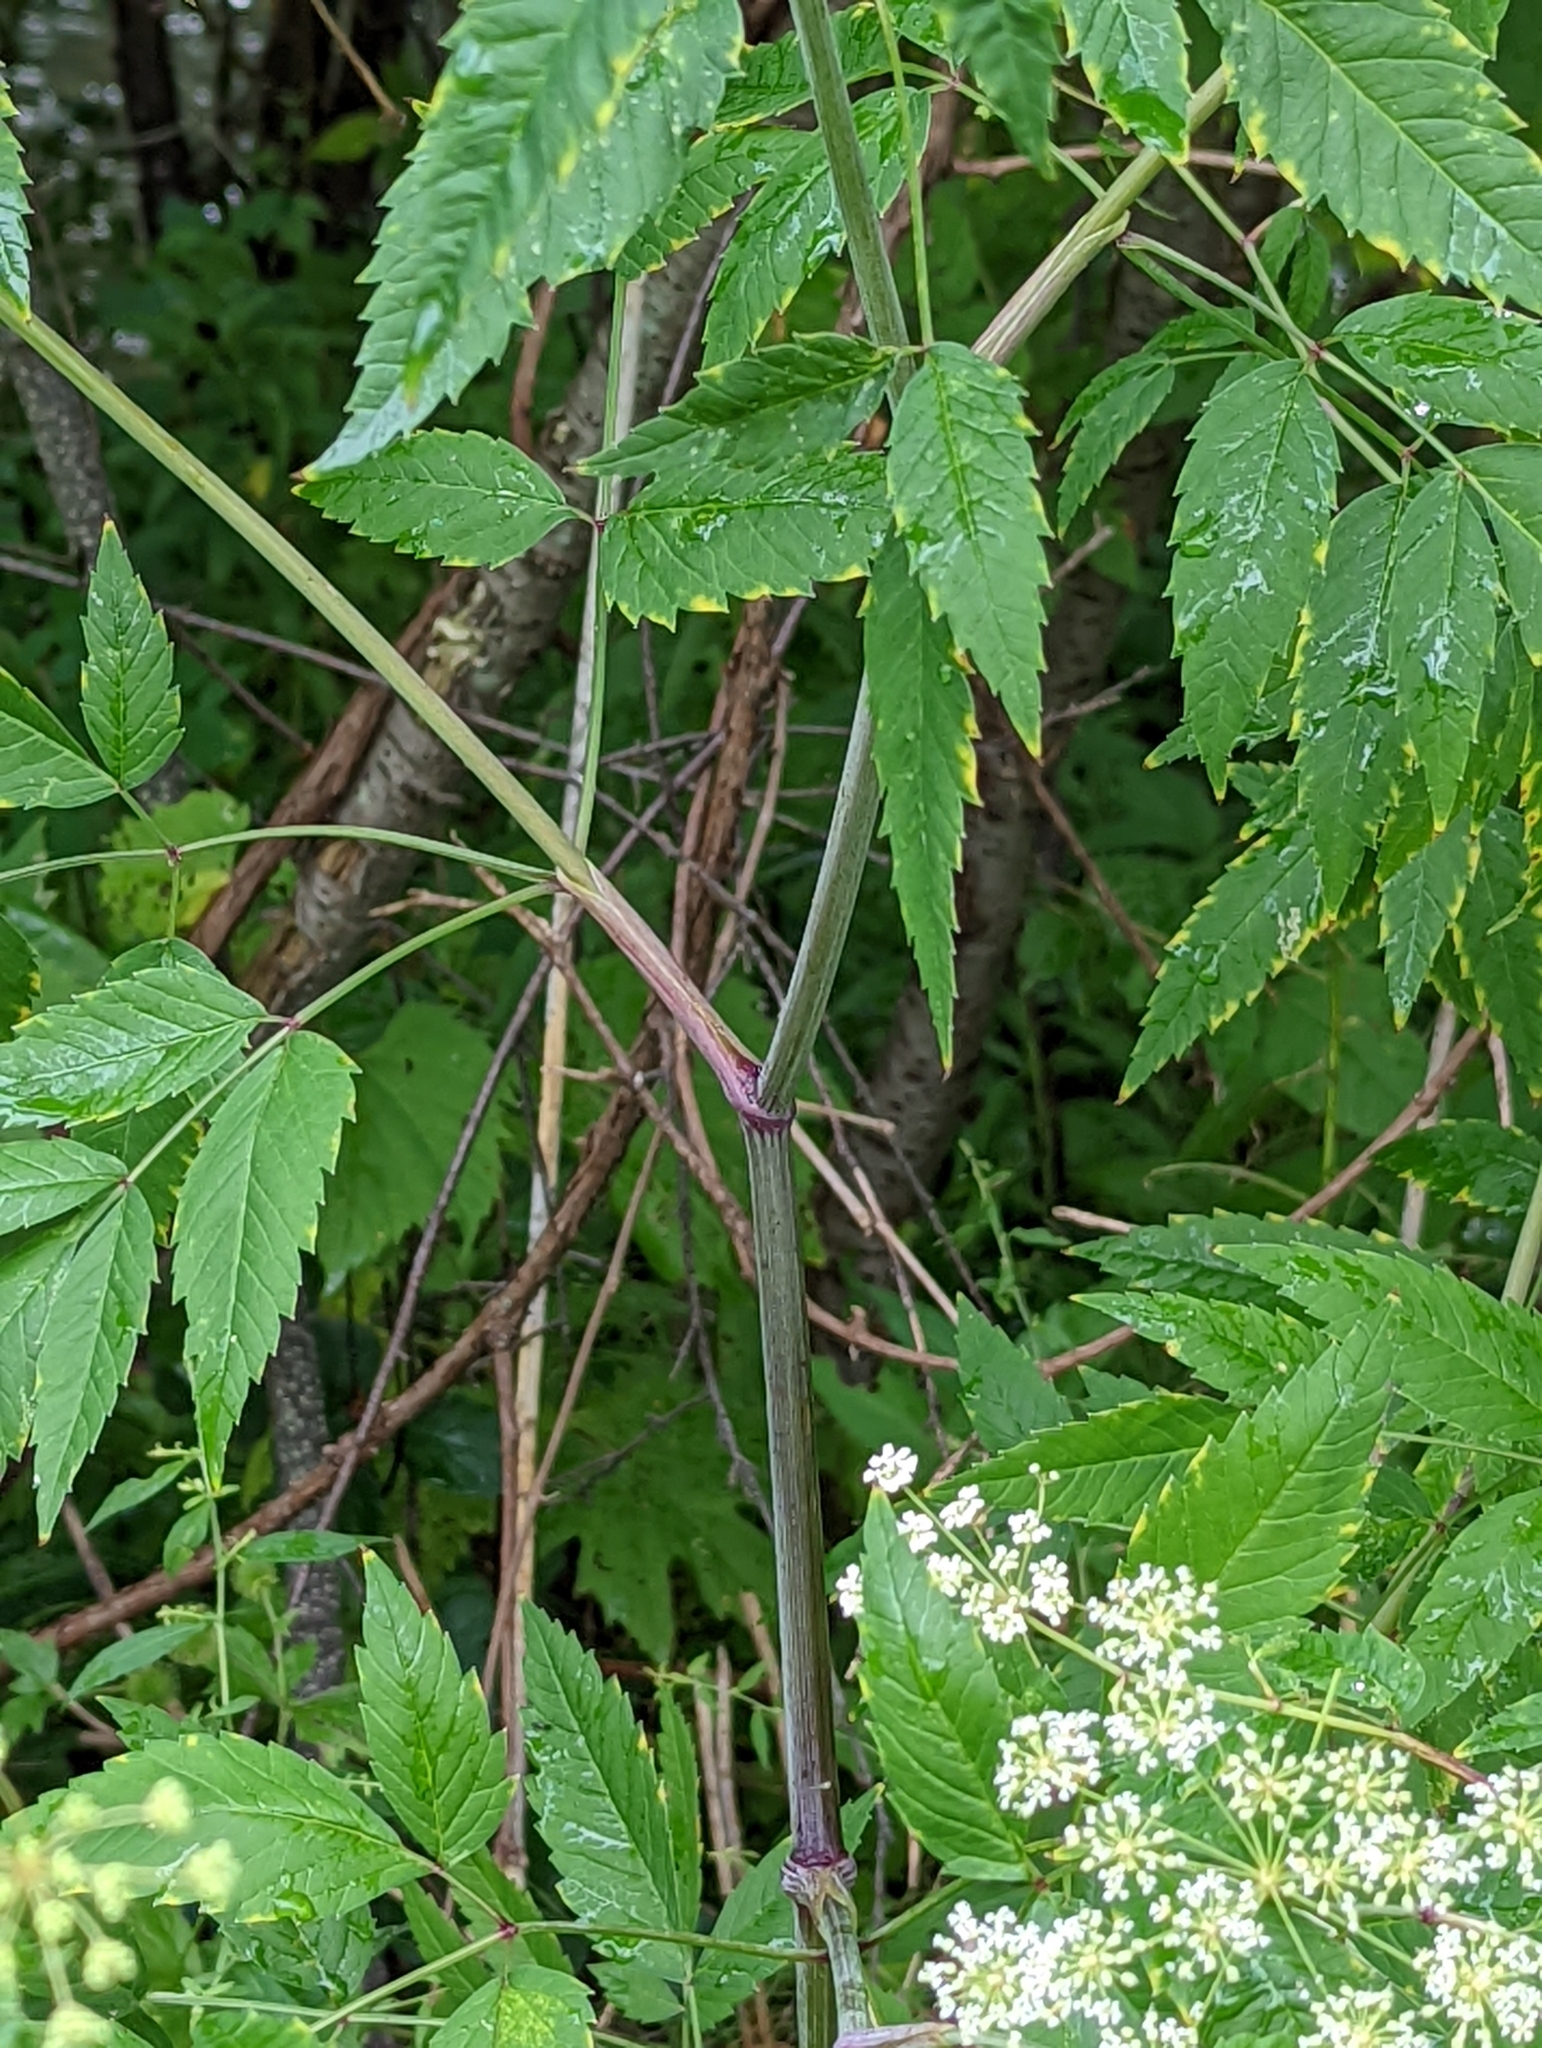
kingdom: Plantae
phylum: Tracheophyta
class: Magnoliopsida
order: Apiales
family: Apiaceae
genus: Cicuta
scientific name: Cicuta maculata
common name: Spotted cowbane
